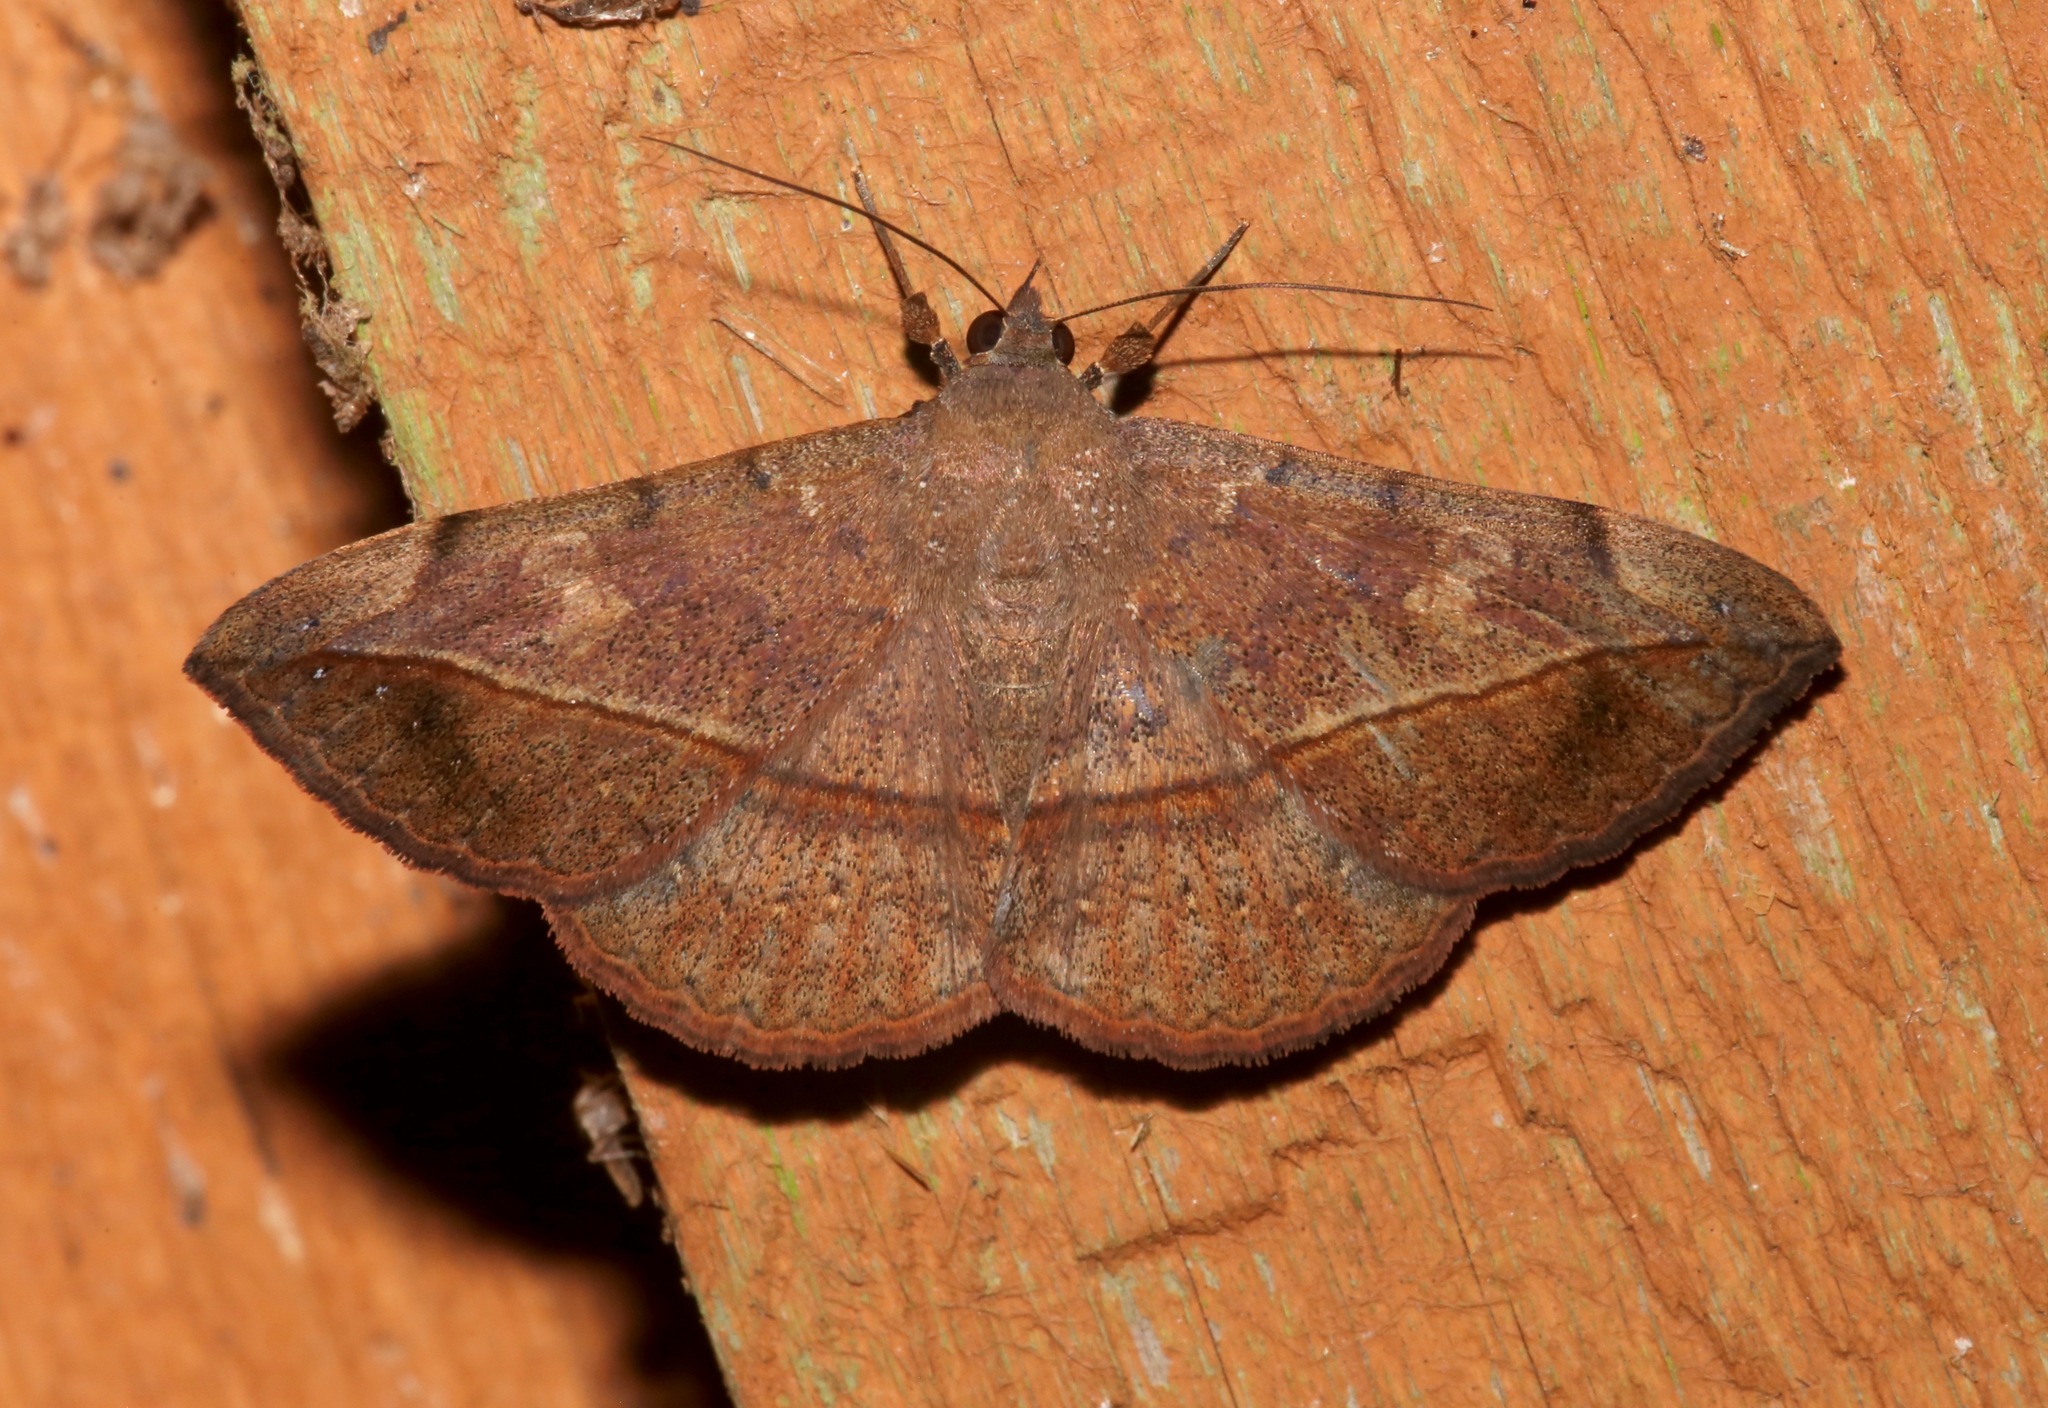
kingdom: Animalia
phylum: Arthropoda
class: Insecta
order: Lepidoptera
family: Erebidae
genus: Anticarsia
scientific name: Anticarsia gemmatalis
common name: Cutworm moth
